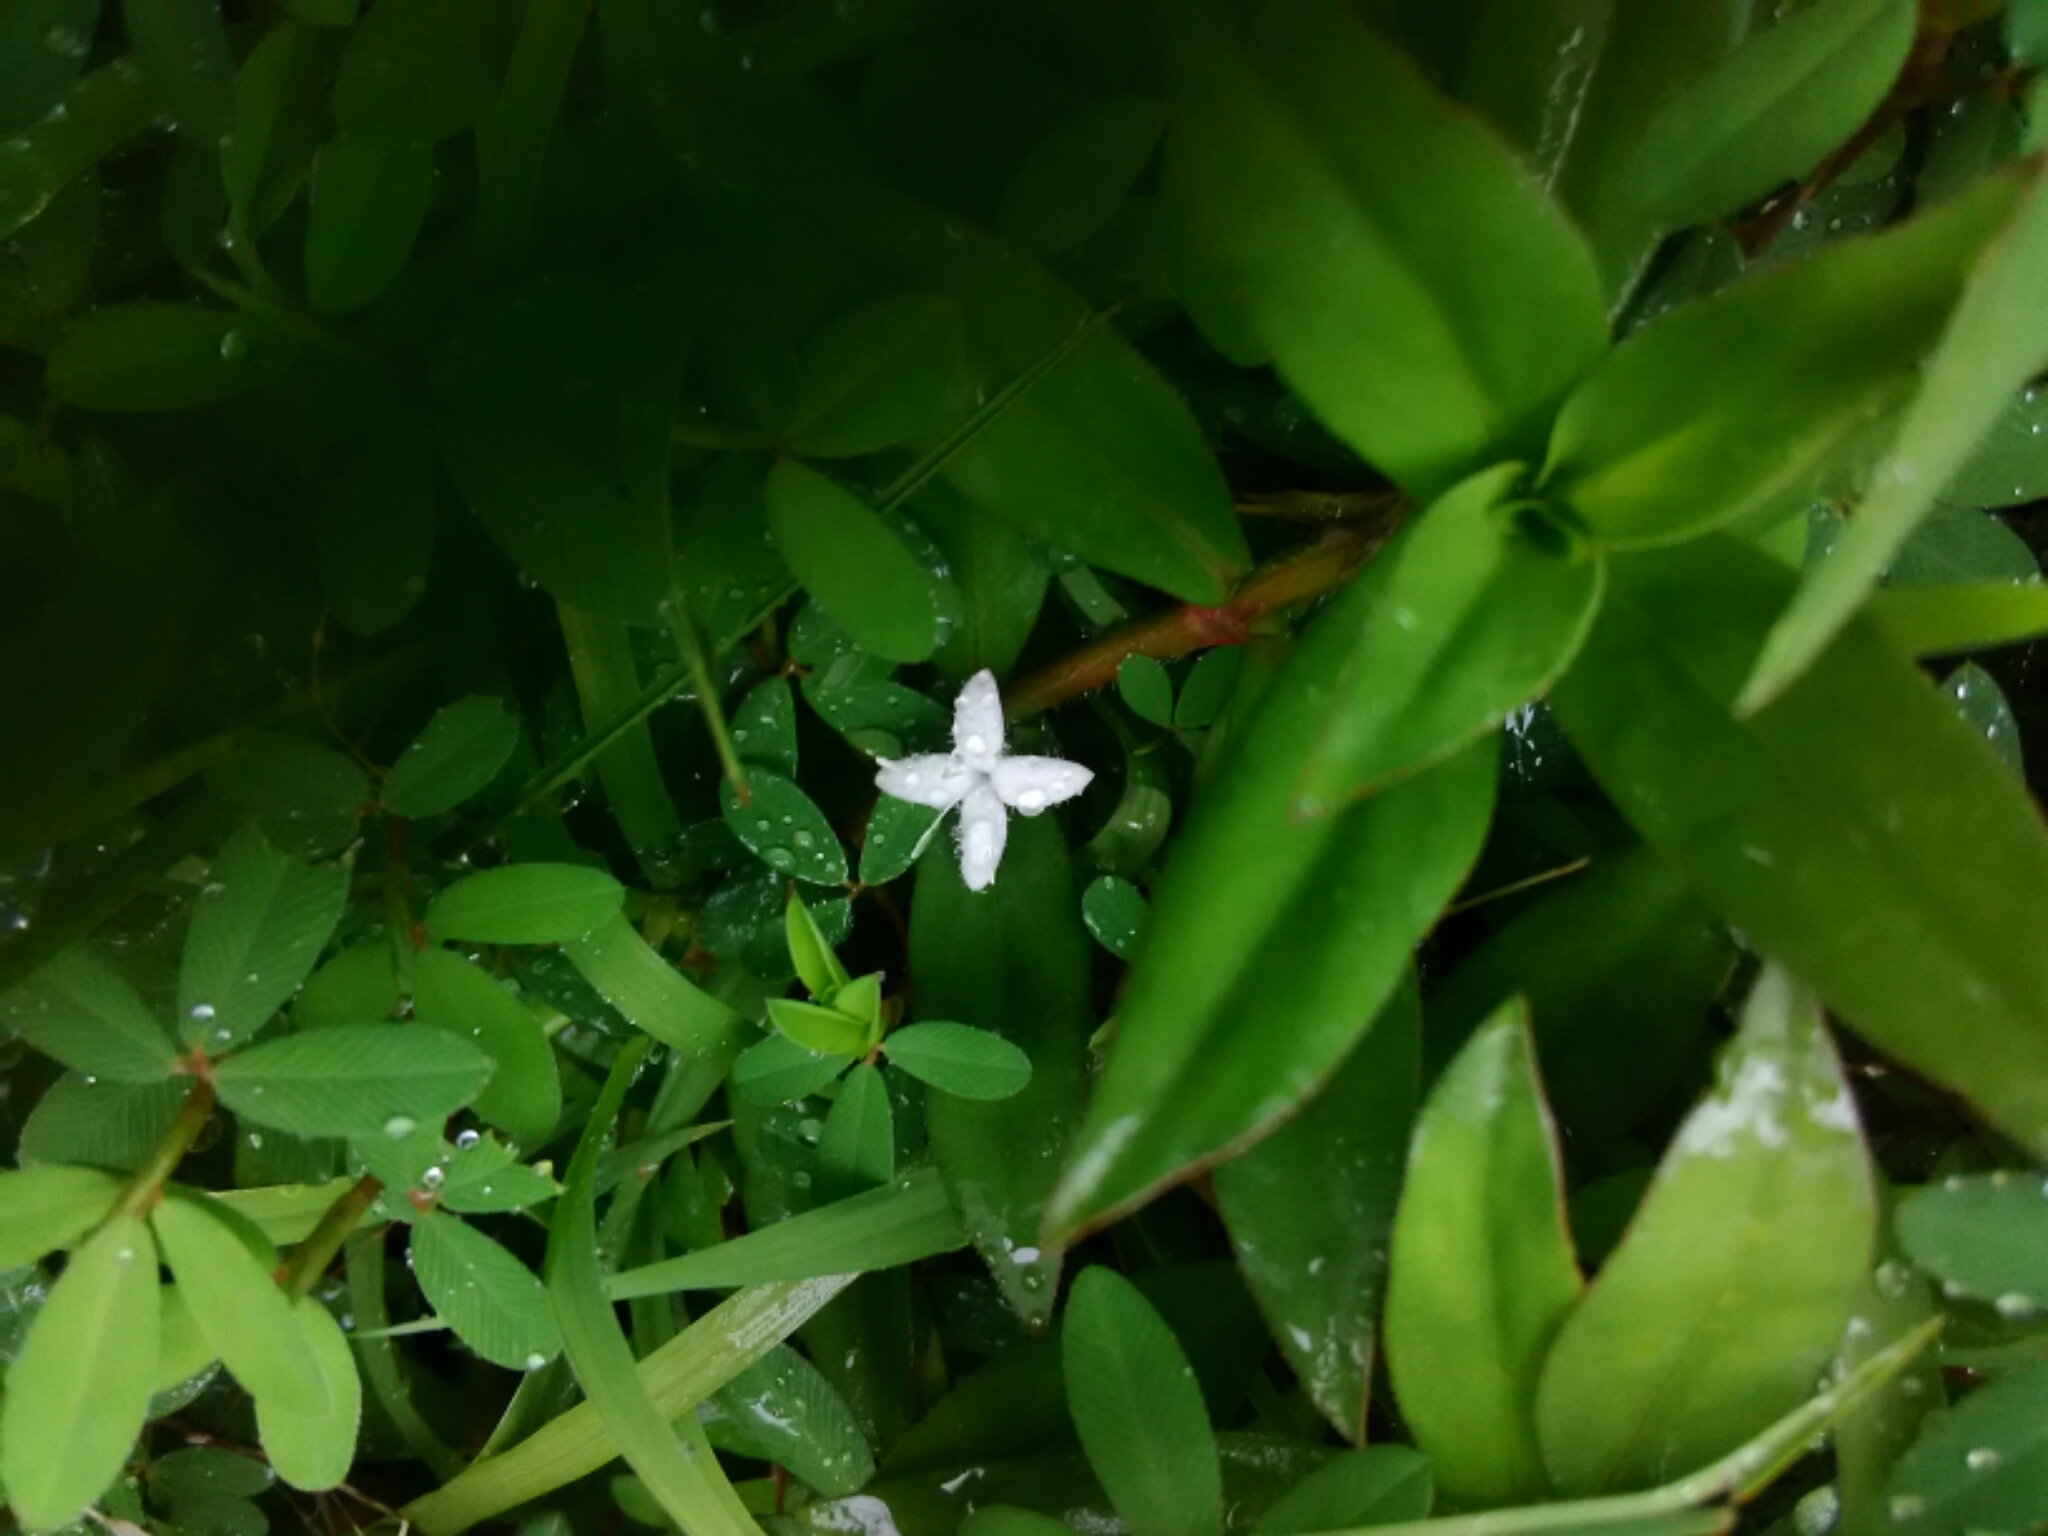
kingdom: Plantae
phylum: Tracheophyta
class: Magnoliopsida
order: Gentianales
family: Rubiaceae
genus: Diodia
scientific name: Diodia virginiana
